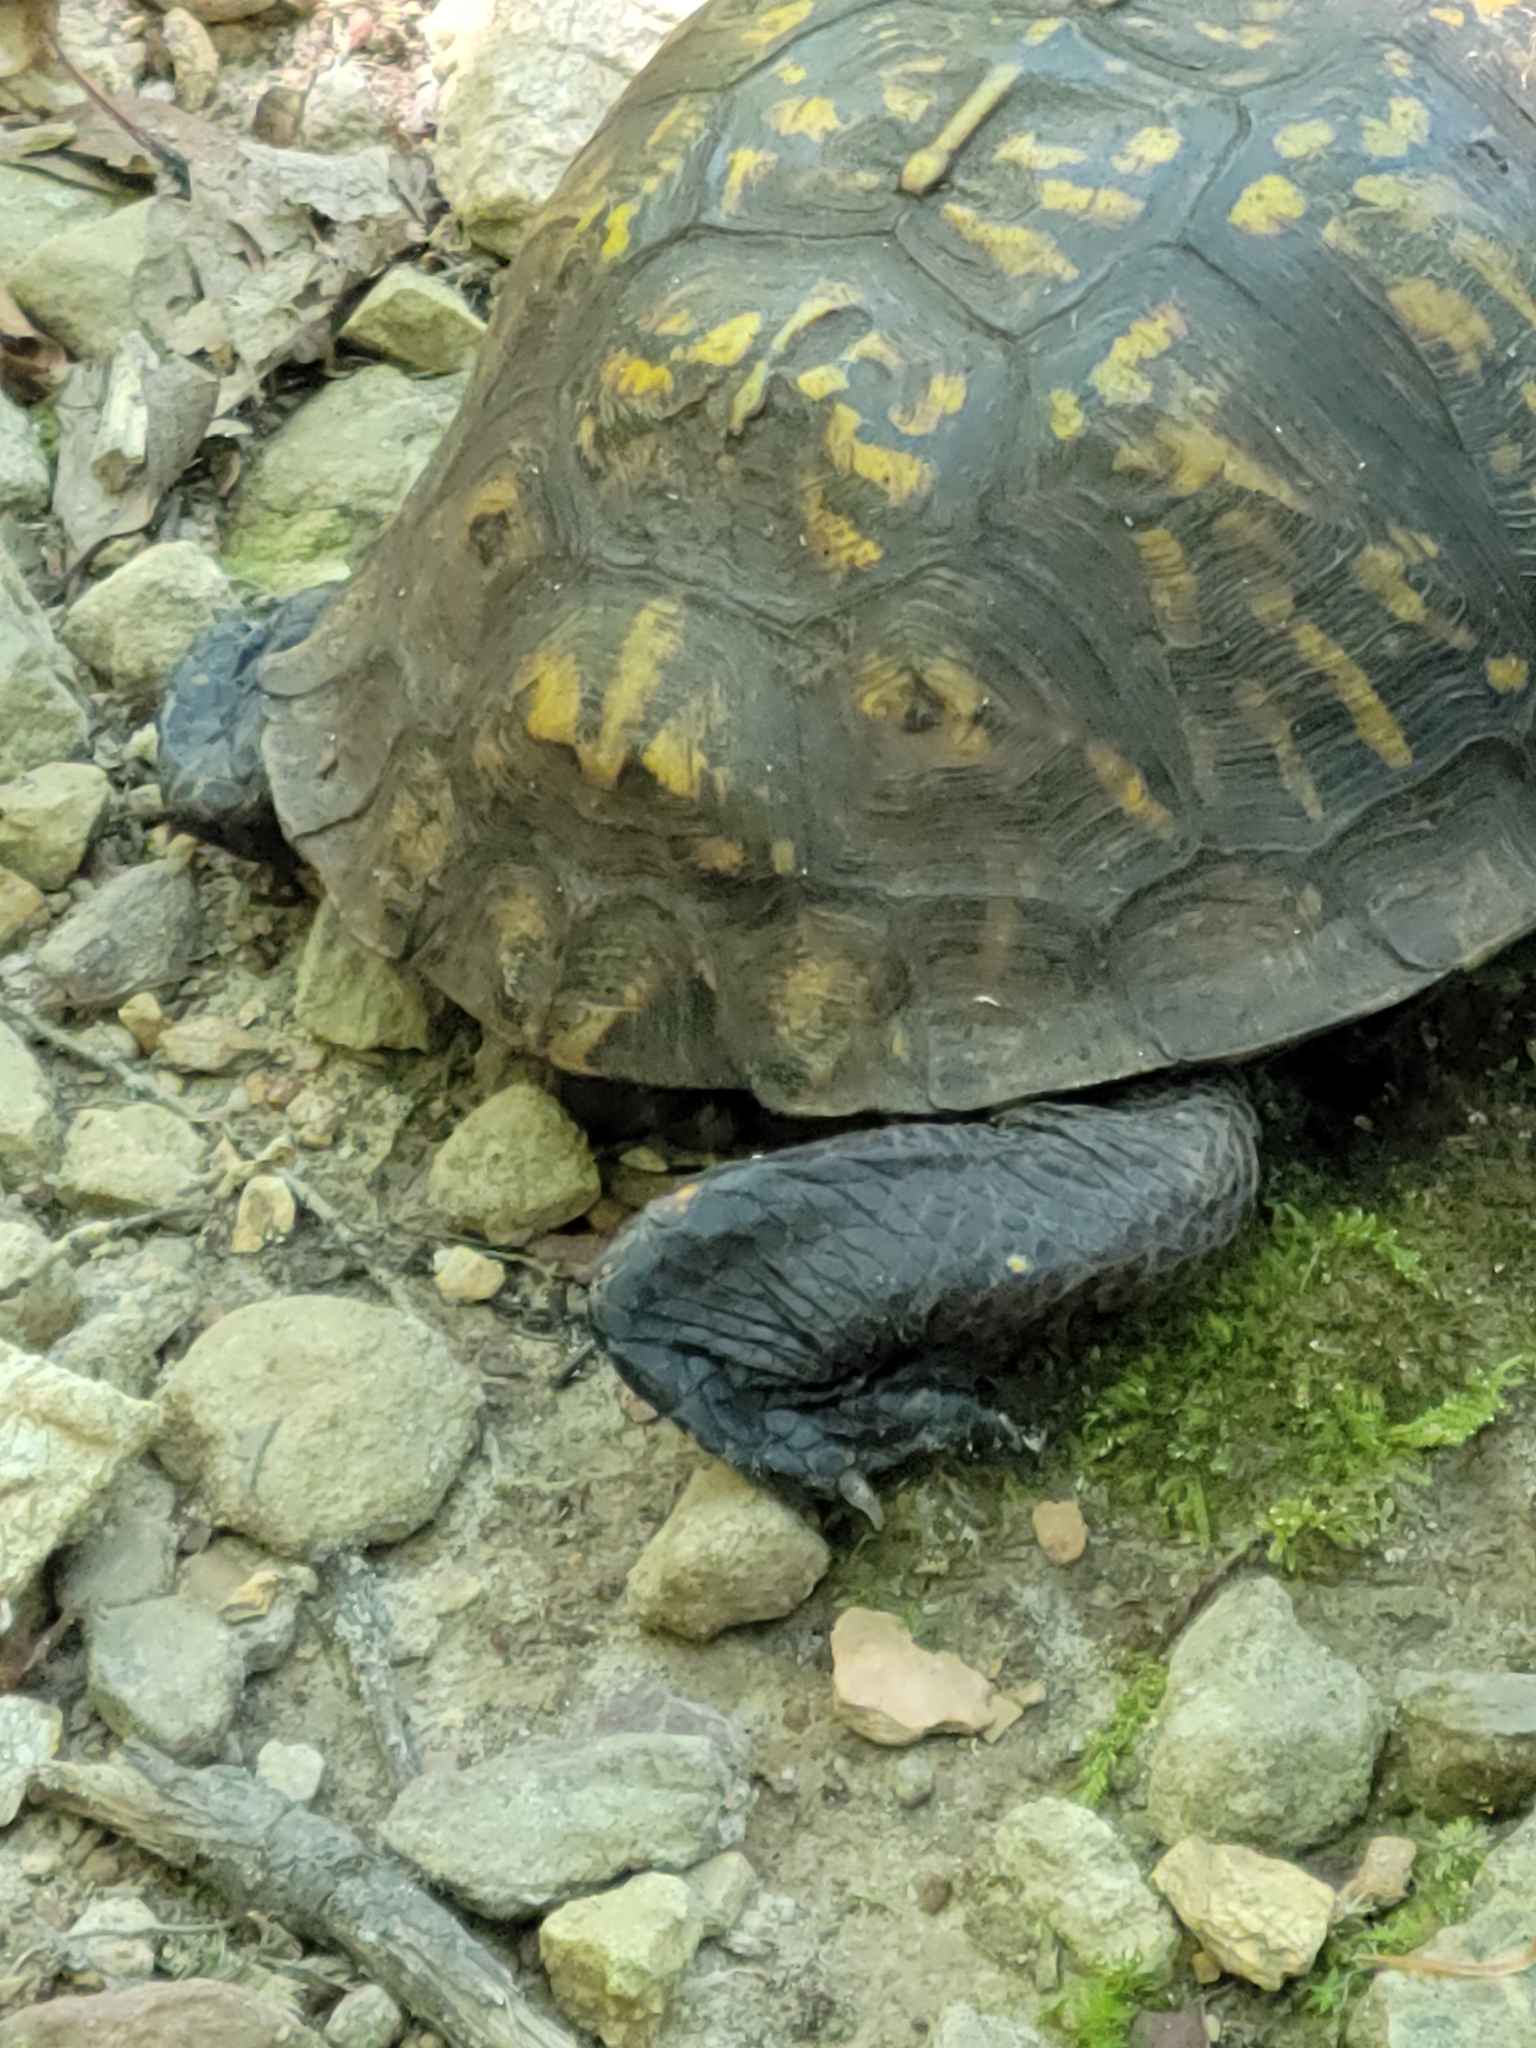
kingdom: Animalia
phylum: Chordata
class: Testudines
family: Emydidae
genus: Terrapene
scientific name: Terrapene carolina
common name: Common box turtle
